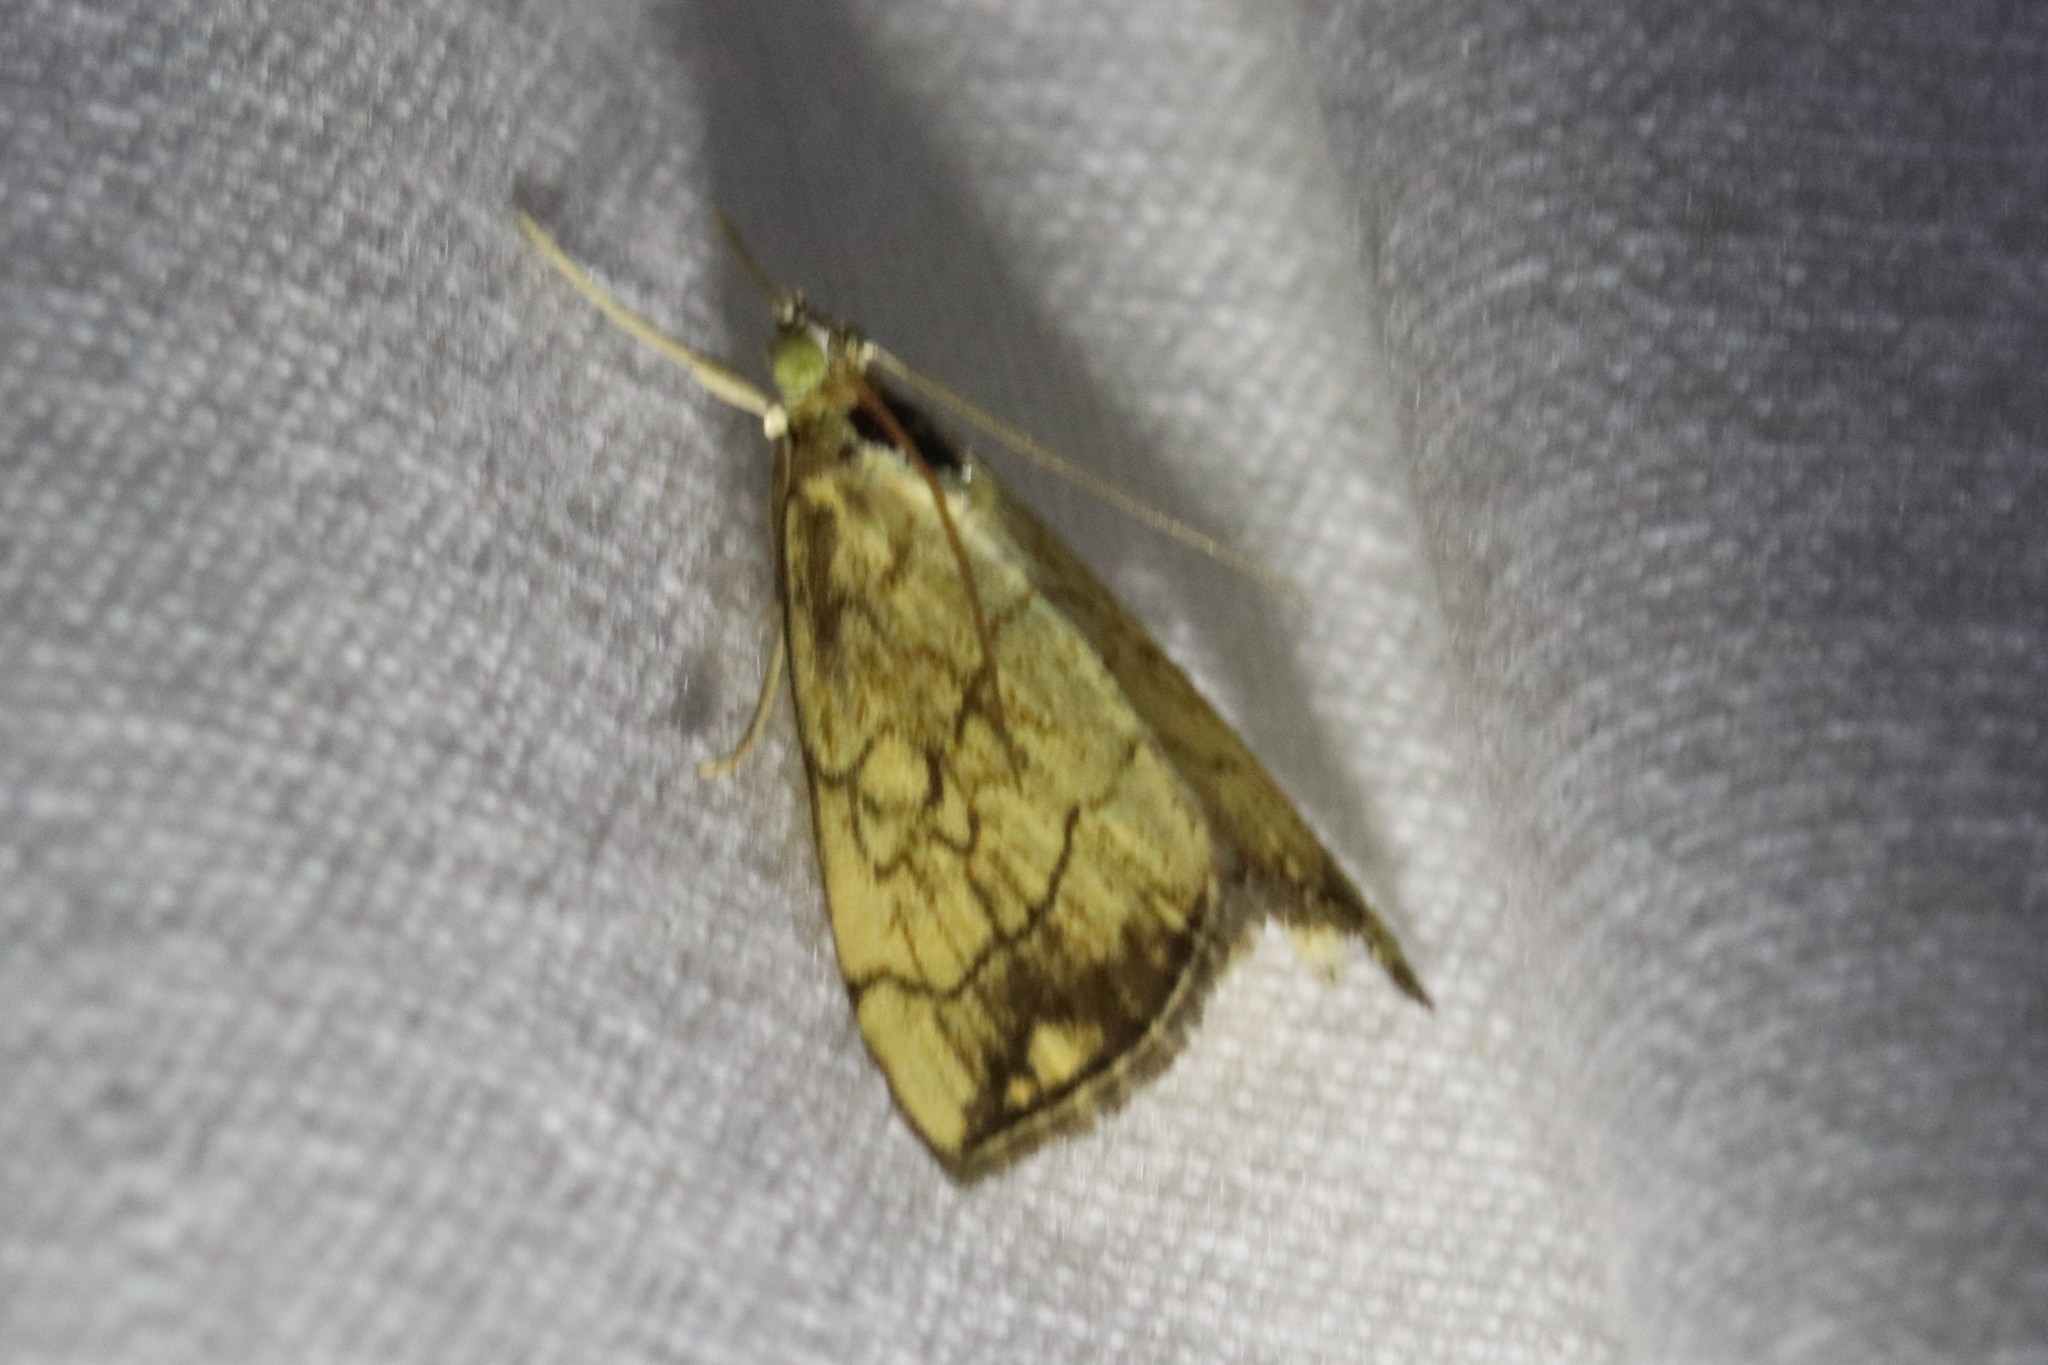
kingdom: Animalia
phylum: Arthropoda
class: Insecta
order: Lepidoptera
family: Crambidae
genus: Evergestis
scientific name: Evergestis pallidata
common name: Chequered pearl
